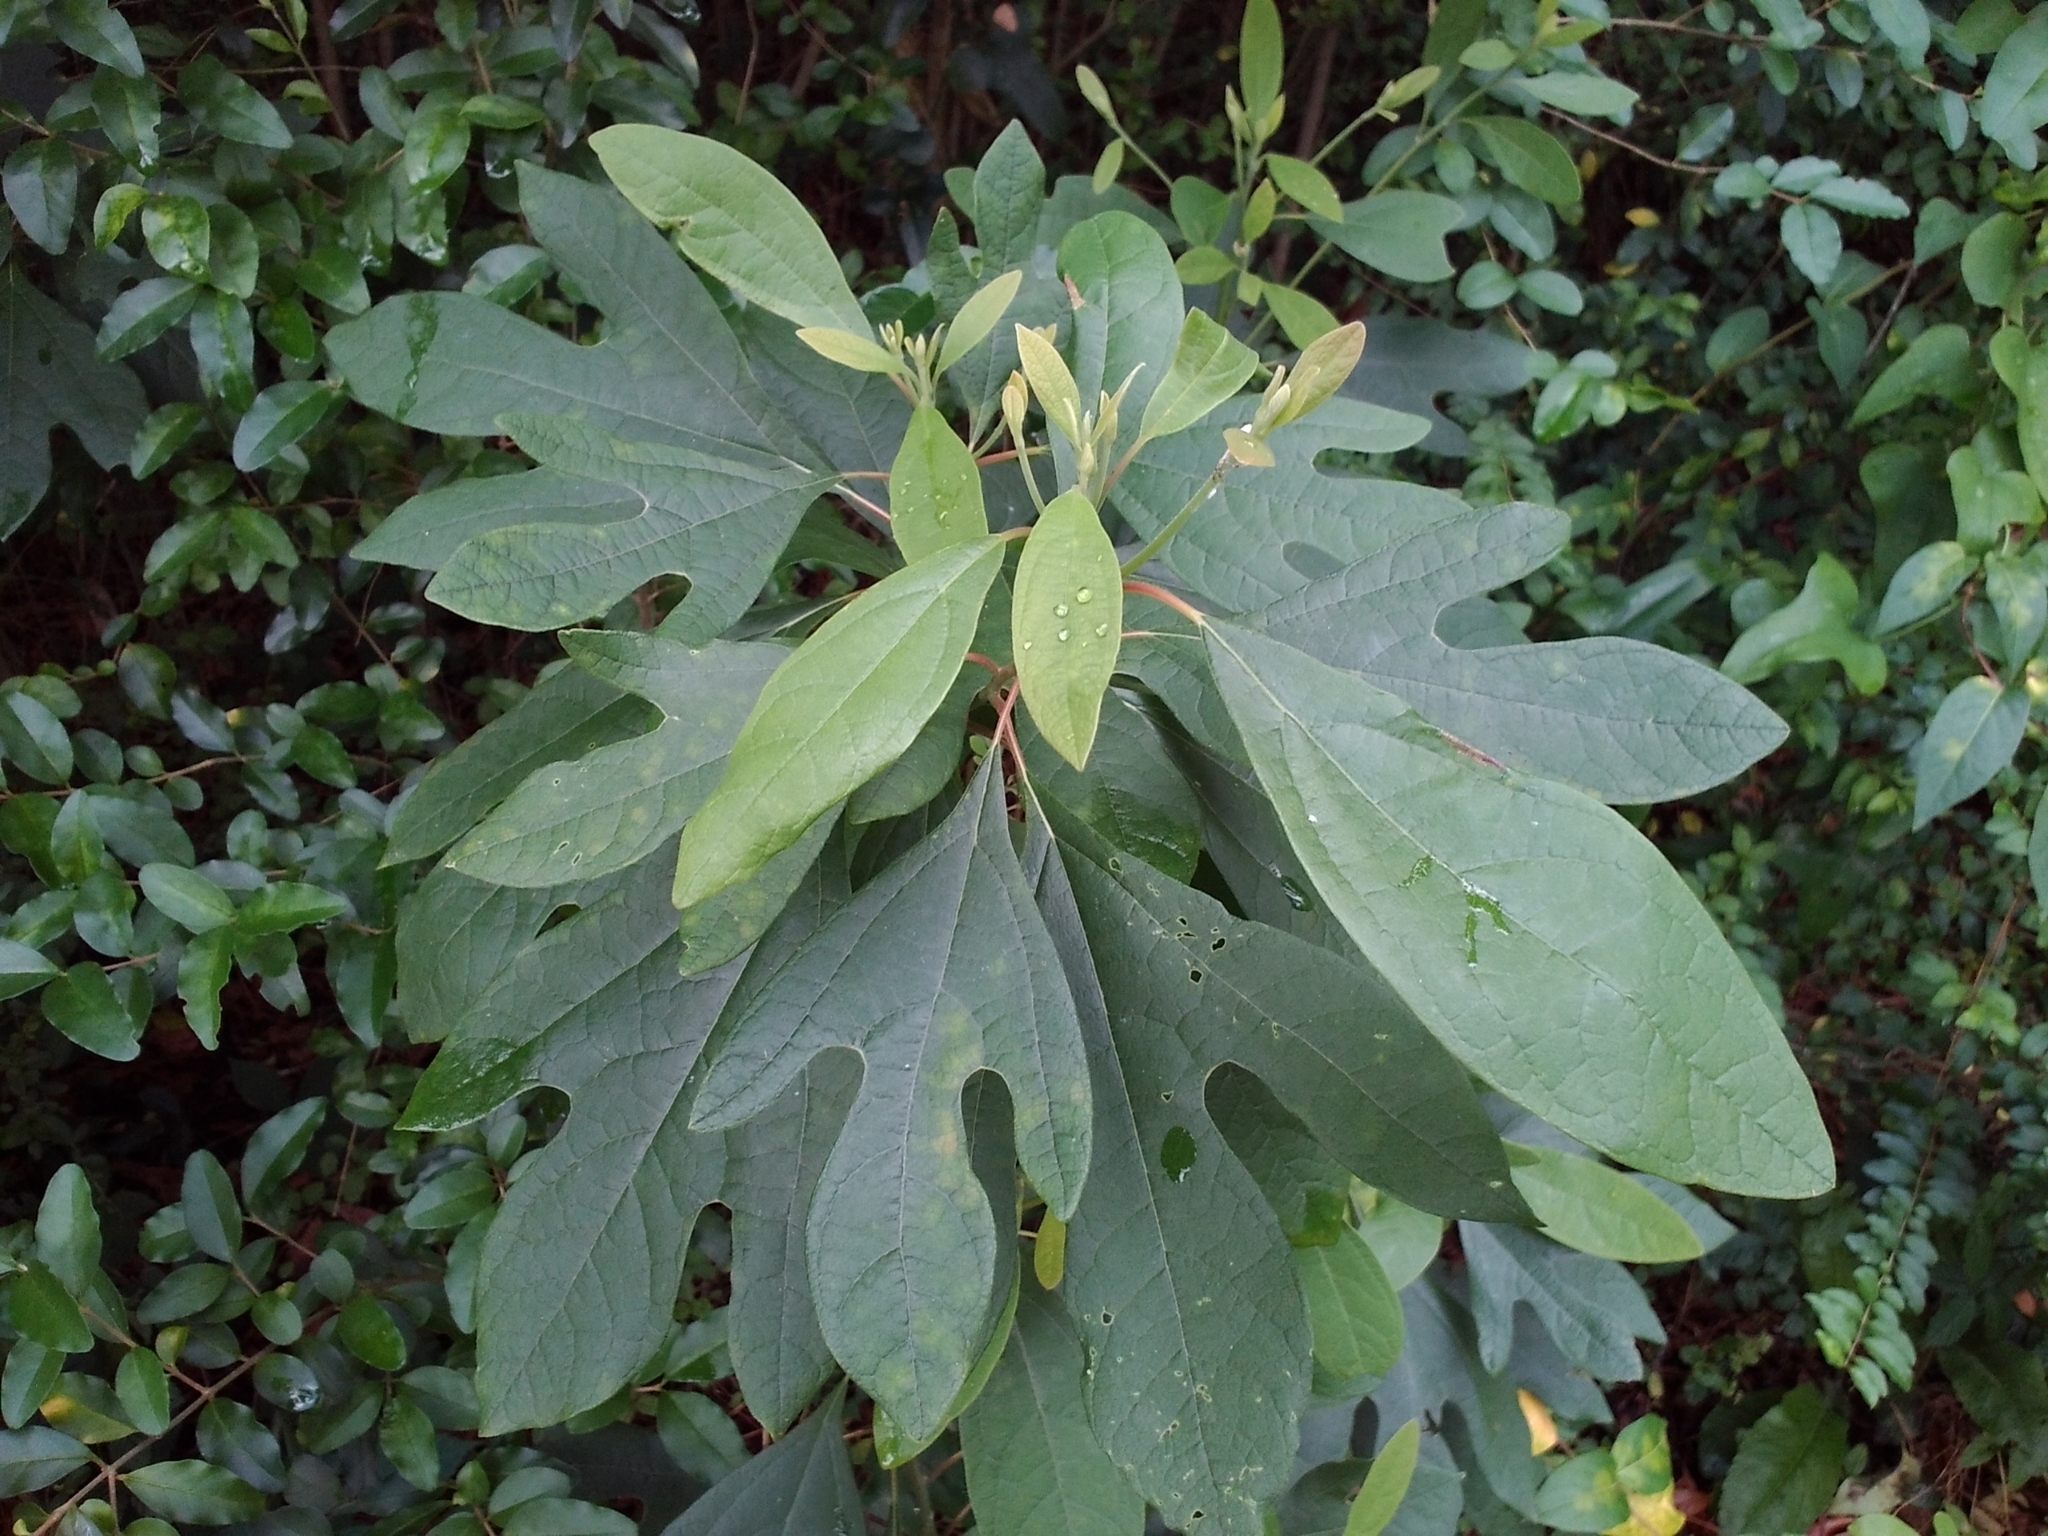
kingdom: Plantae
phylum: Tracheophyta
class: Magnoliopsida
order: Laurales
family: Lauraceae
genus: Sassafras
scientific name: Sassafras albidum
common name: Sassafras
